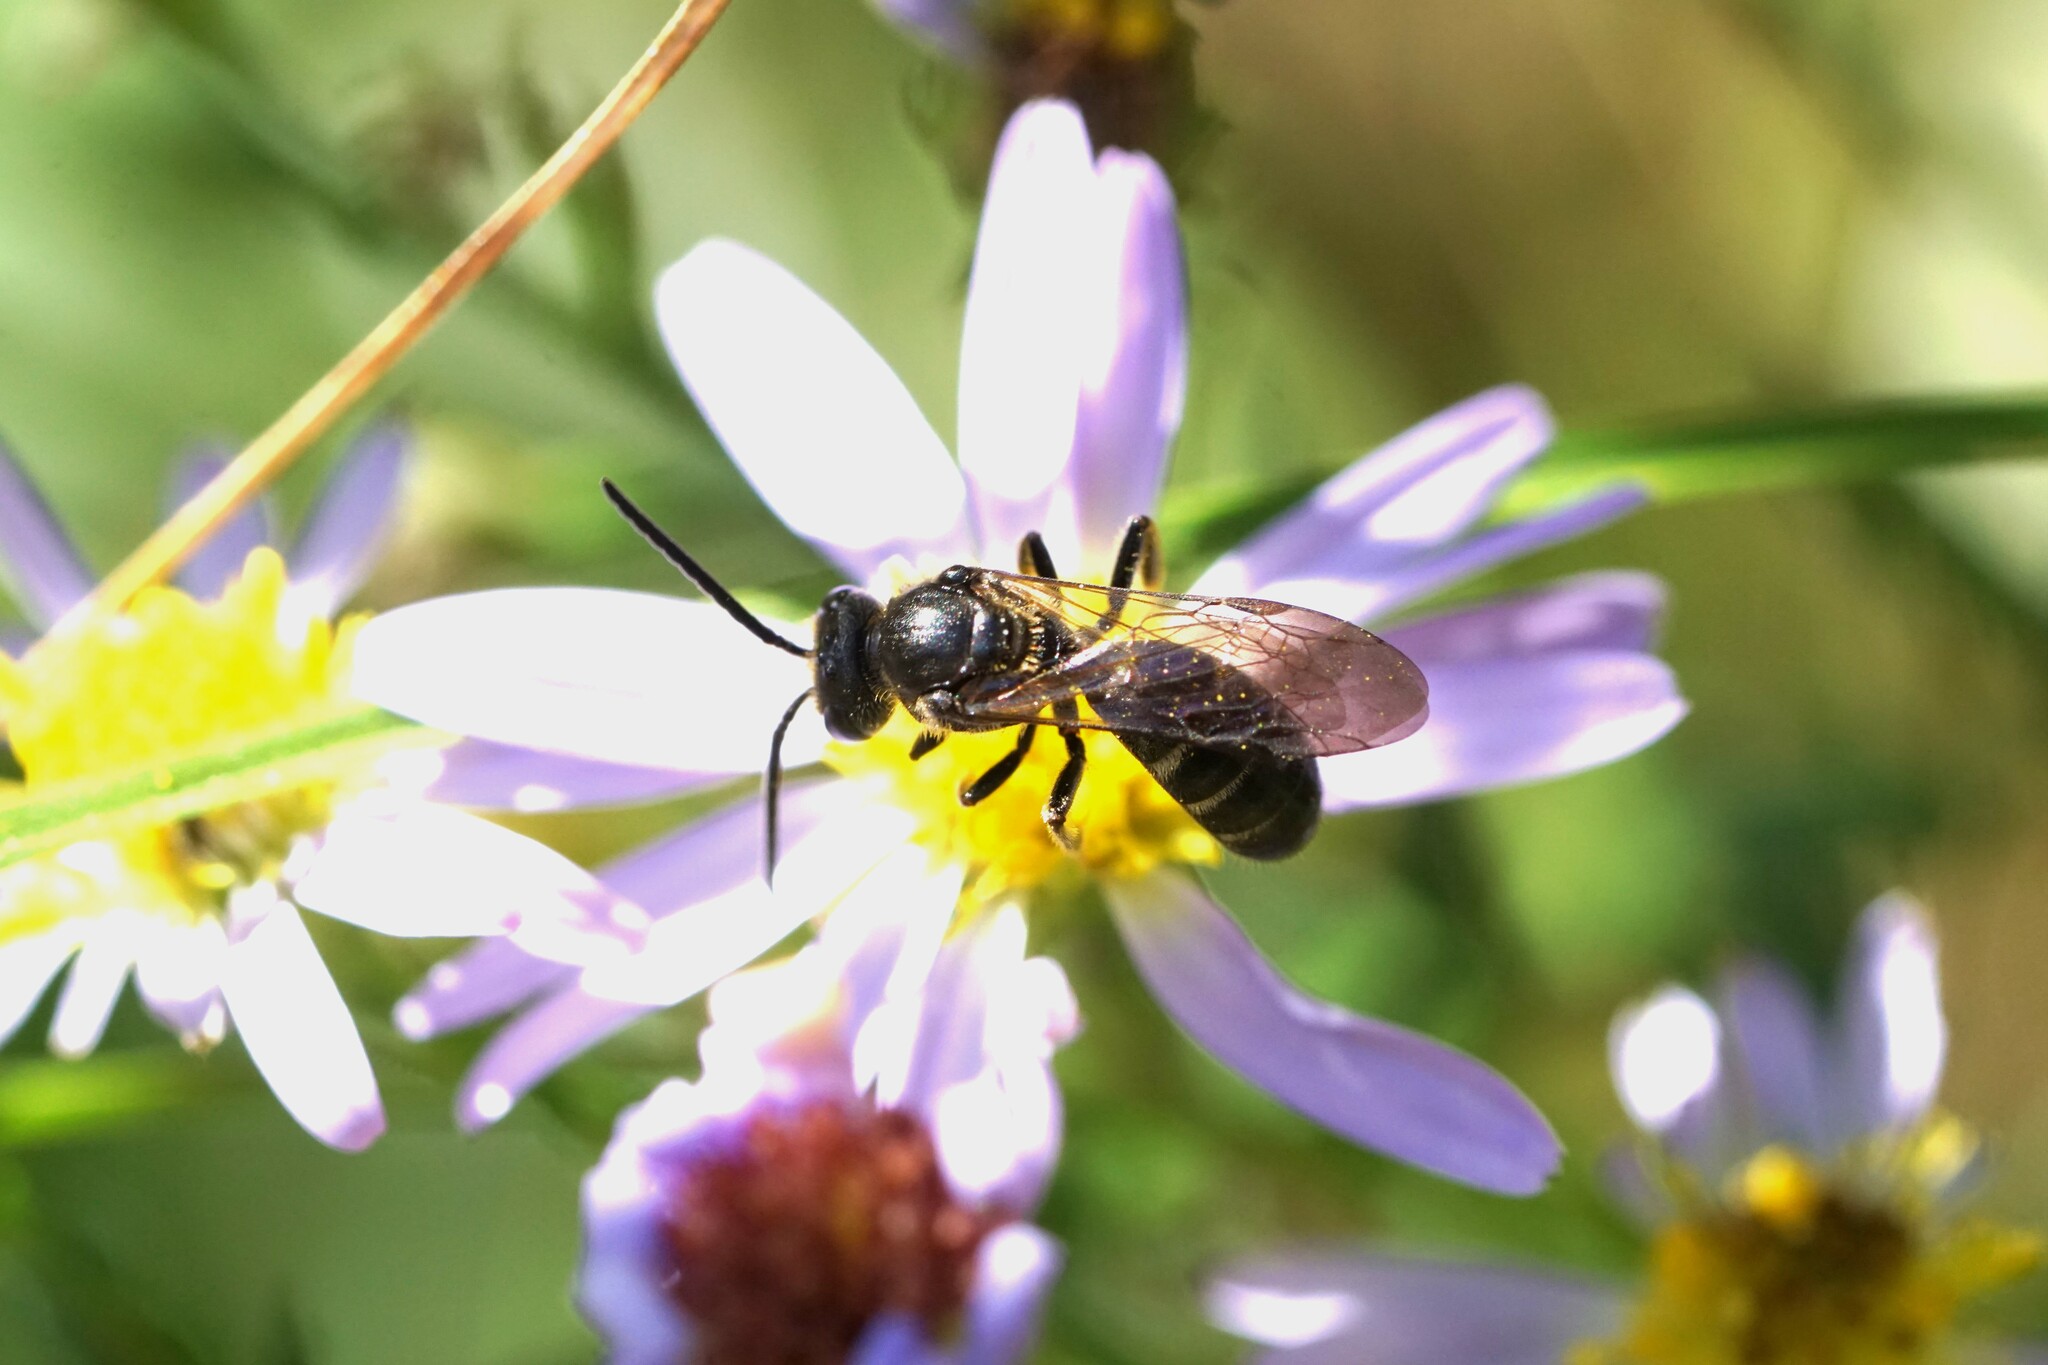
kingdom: Animalia
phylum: Arthropoda
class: Insecta
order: Hymenoptera
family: Halictidae
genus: Lasioglossum
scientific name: Lasioglossum fuscipenne
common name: Brown-winged sweat bee
